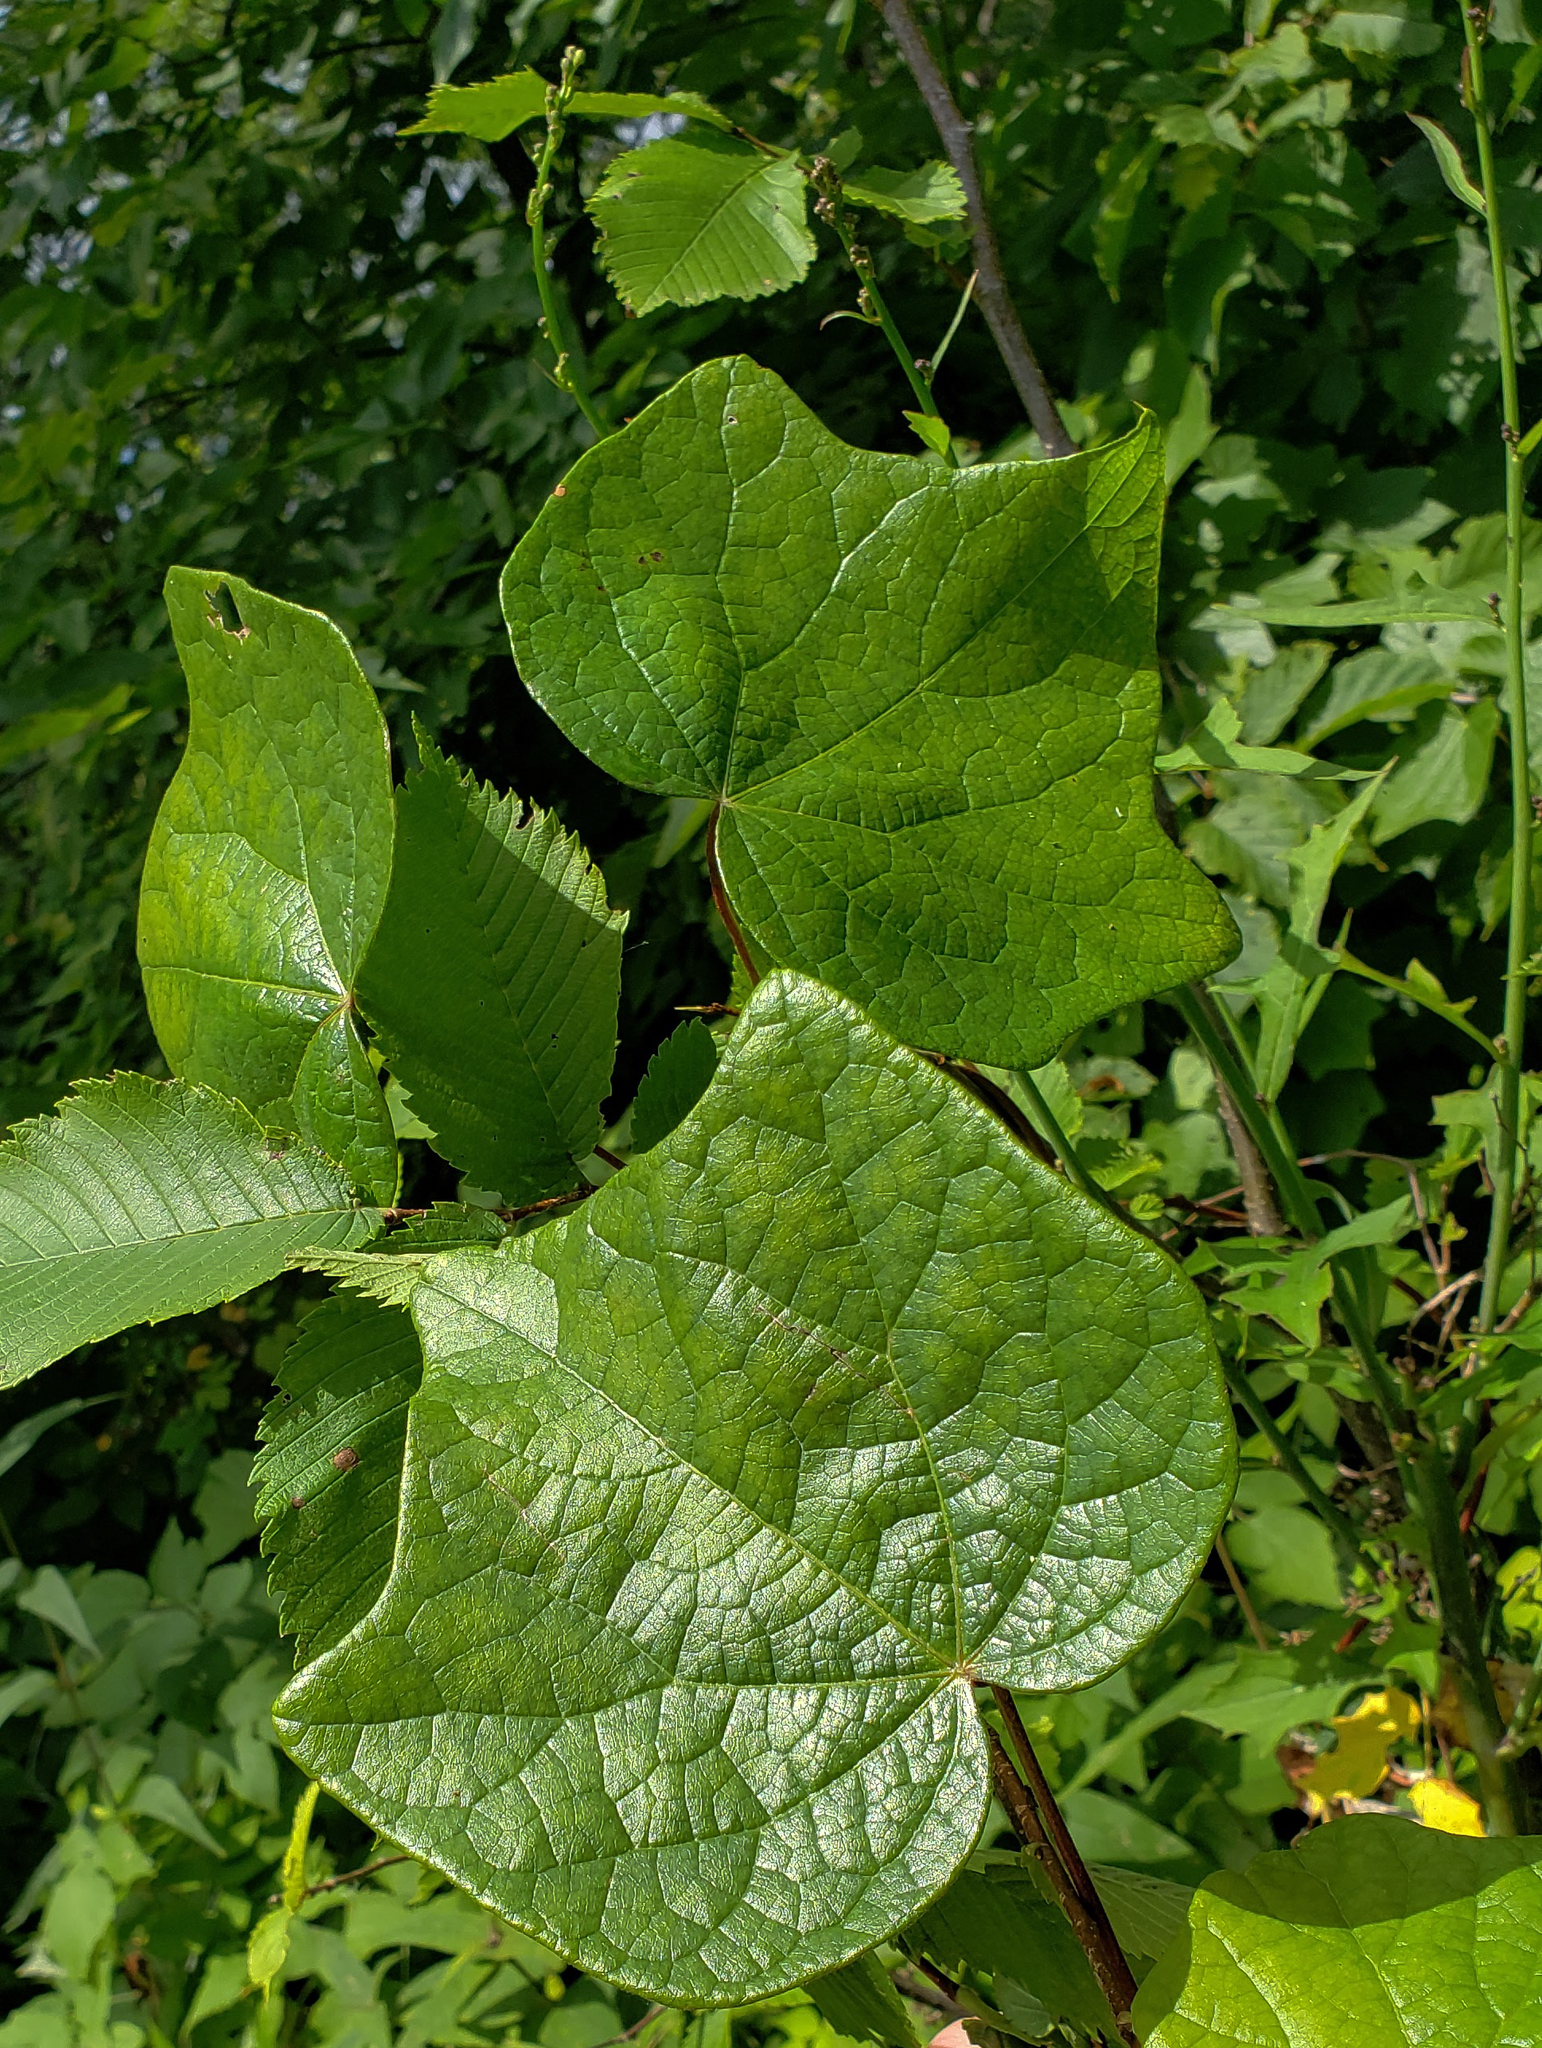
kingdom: Plantae
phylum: Tracheophyta
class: Magnoliopsida
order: Ranunculales
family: Menispermaceae
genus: Menispermum
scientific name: Menispermum canadense
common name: Moonseed
